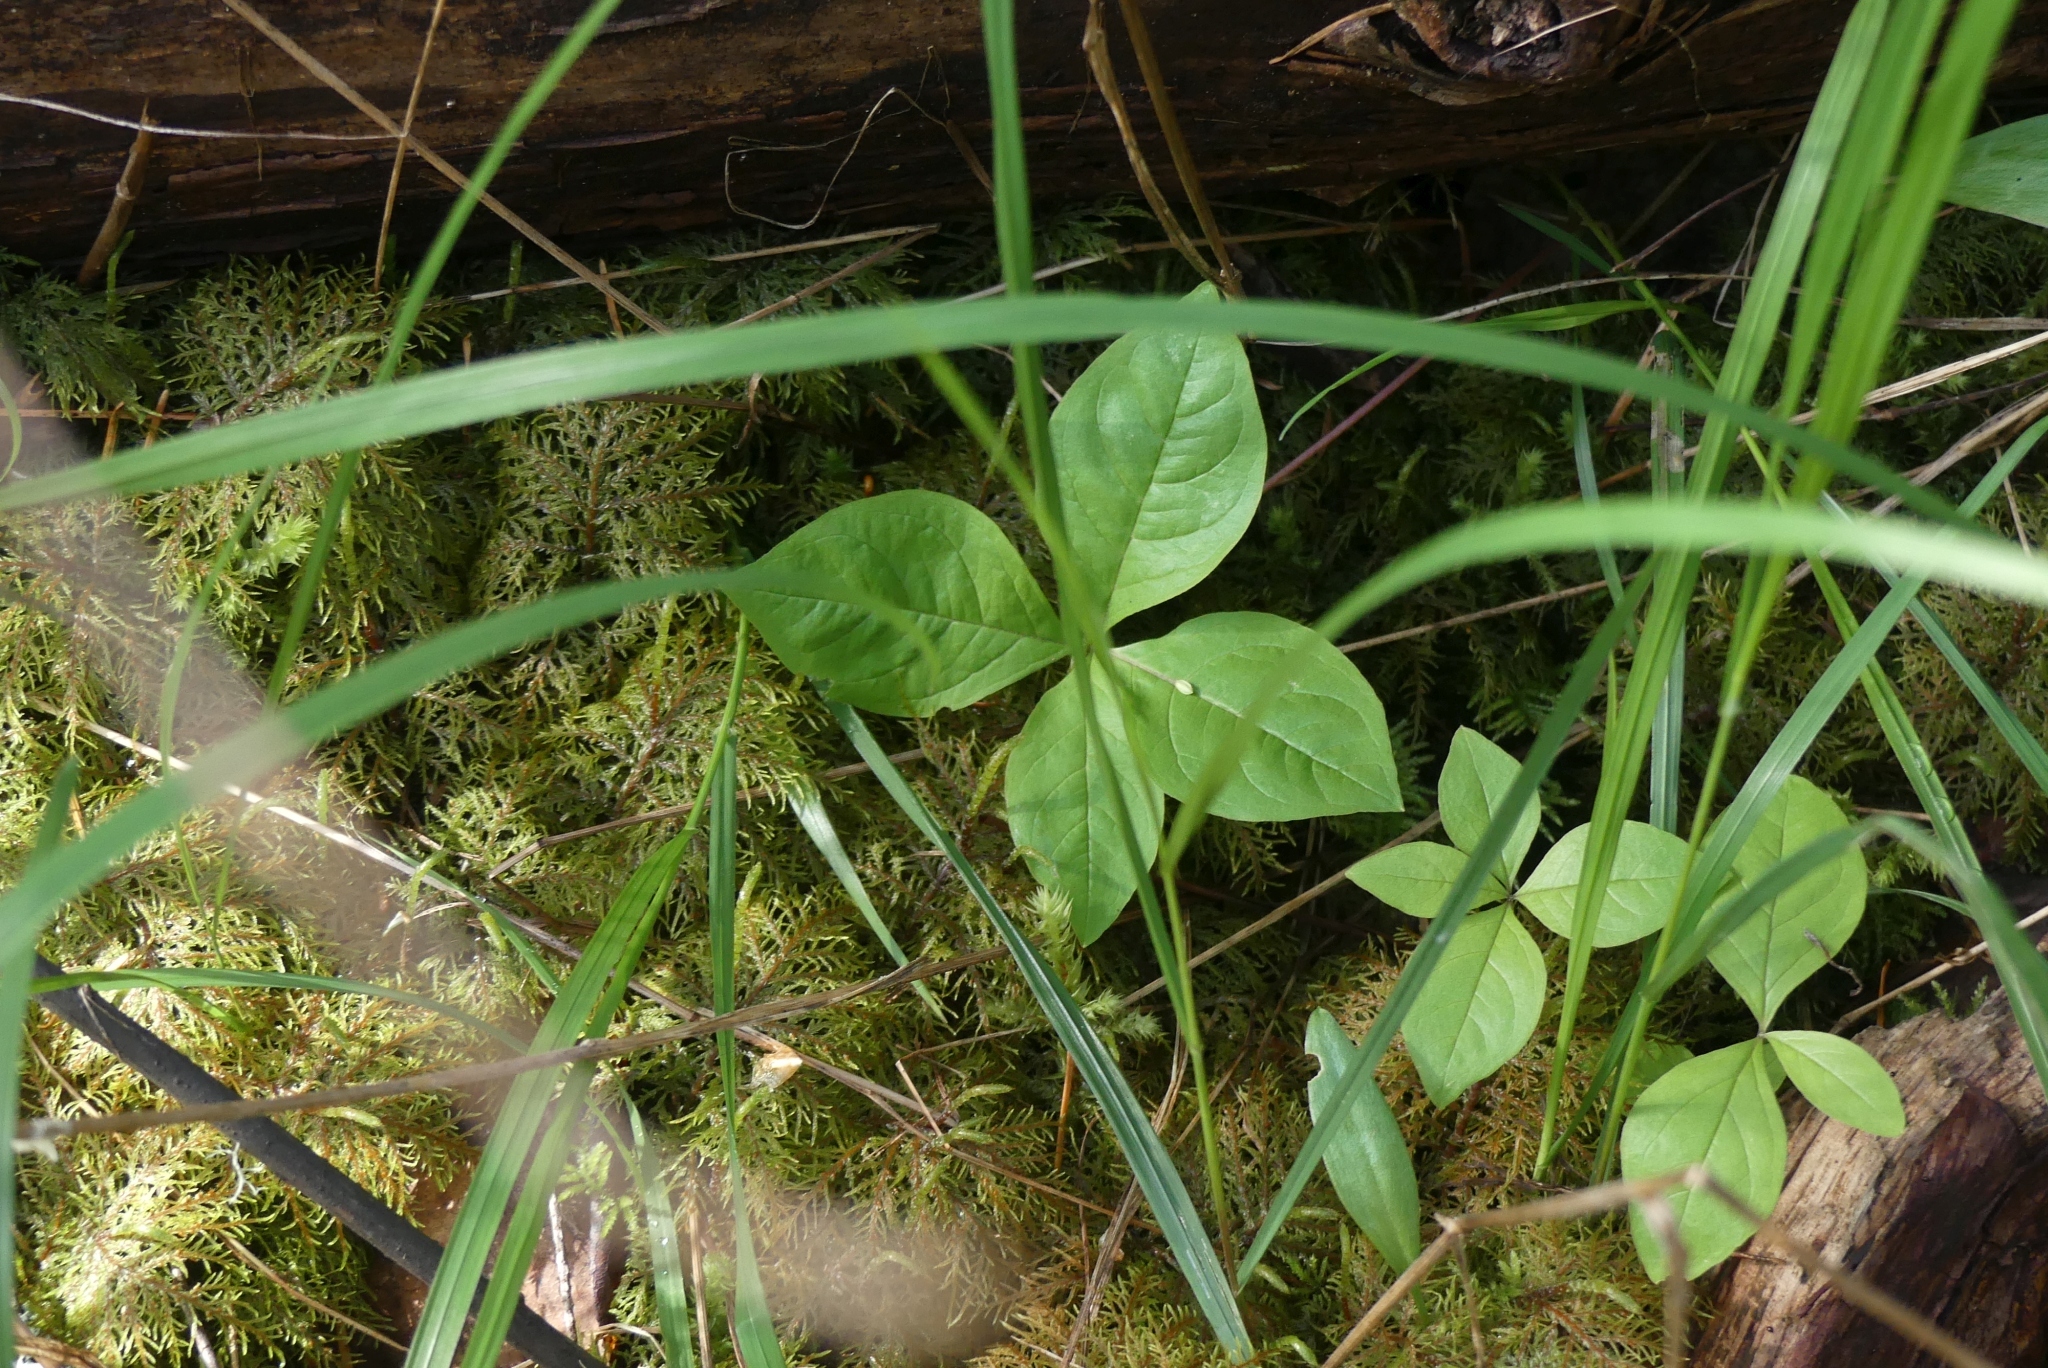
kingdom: Plantae
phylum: Tracheophyta
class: Magnoliopsida
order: Ericales
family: Primulaceae
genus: Lysimachia
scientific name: Lysimachia latifolia
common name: Pacific starflower
